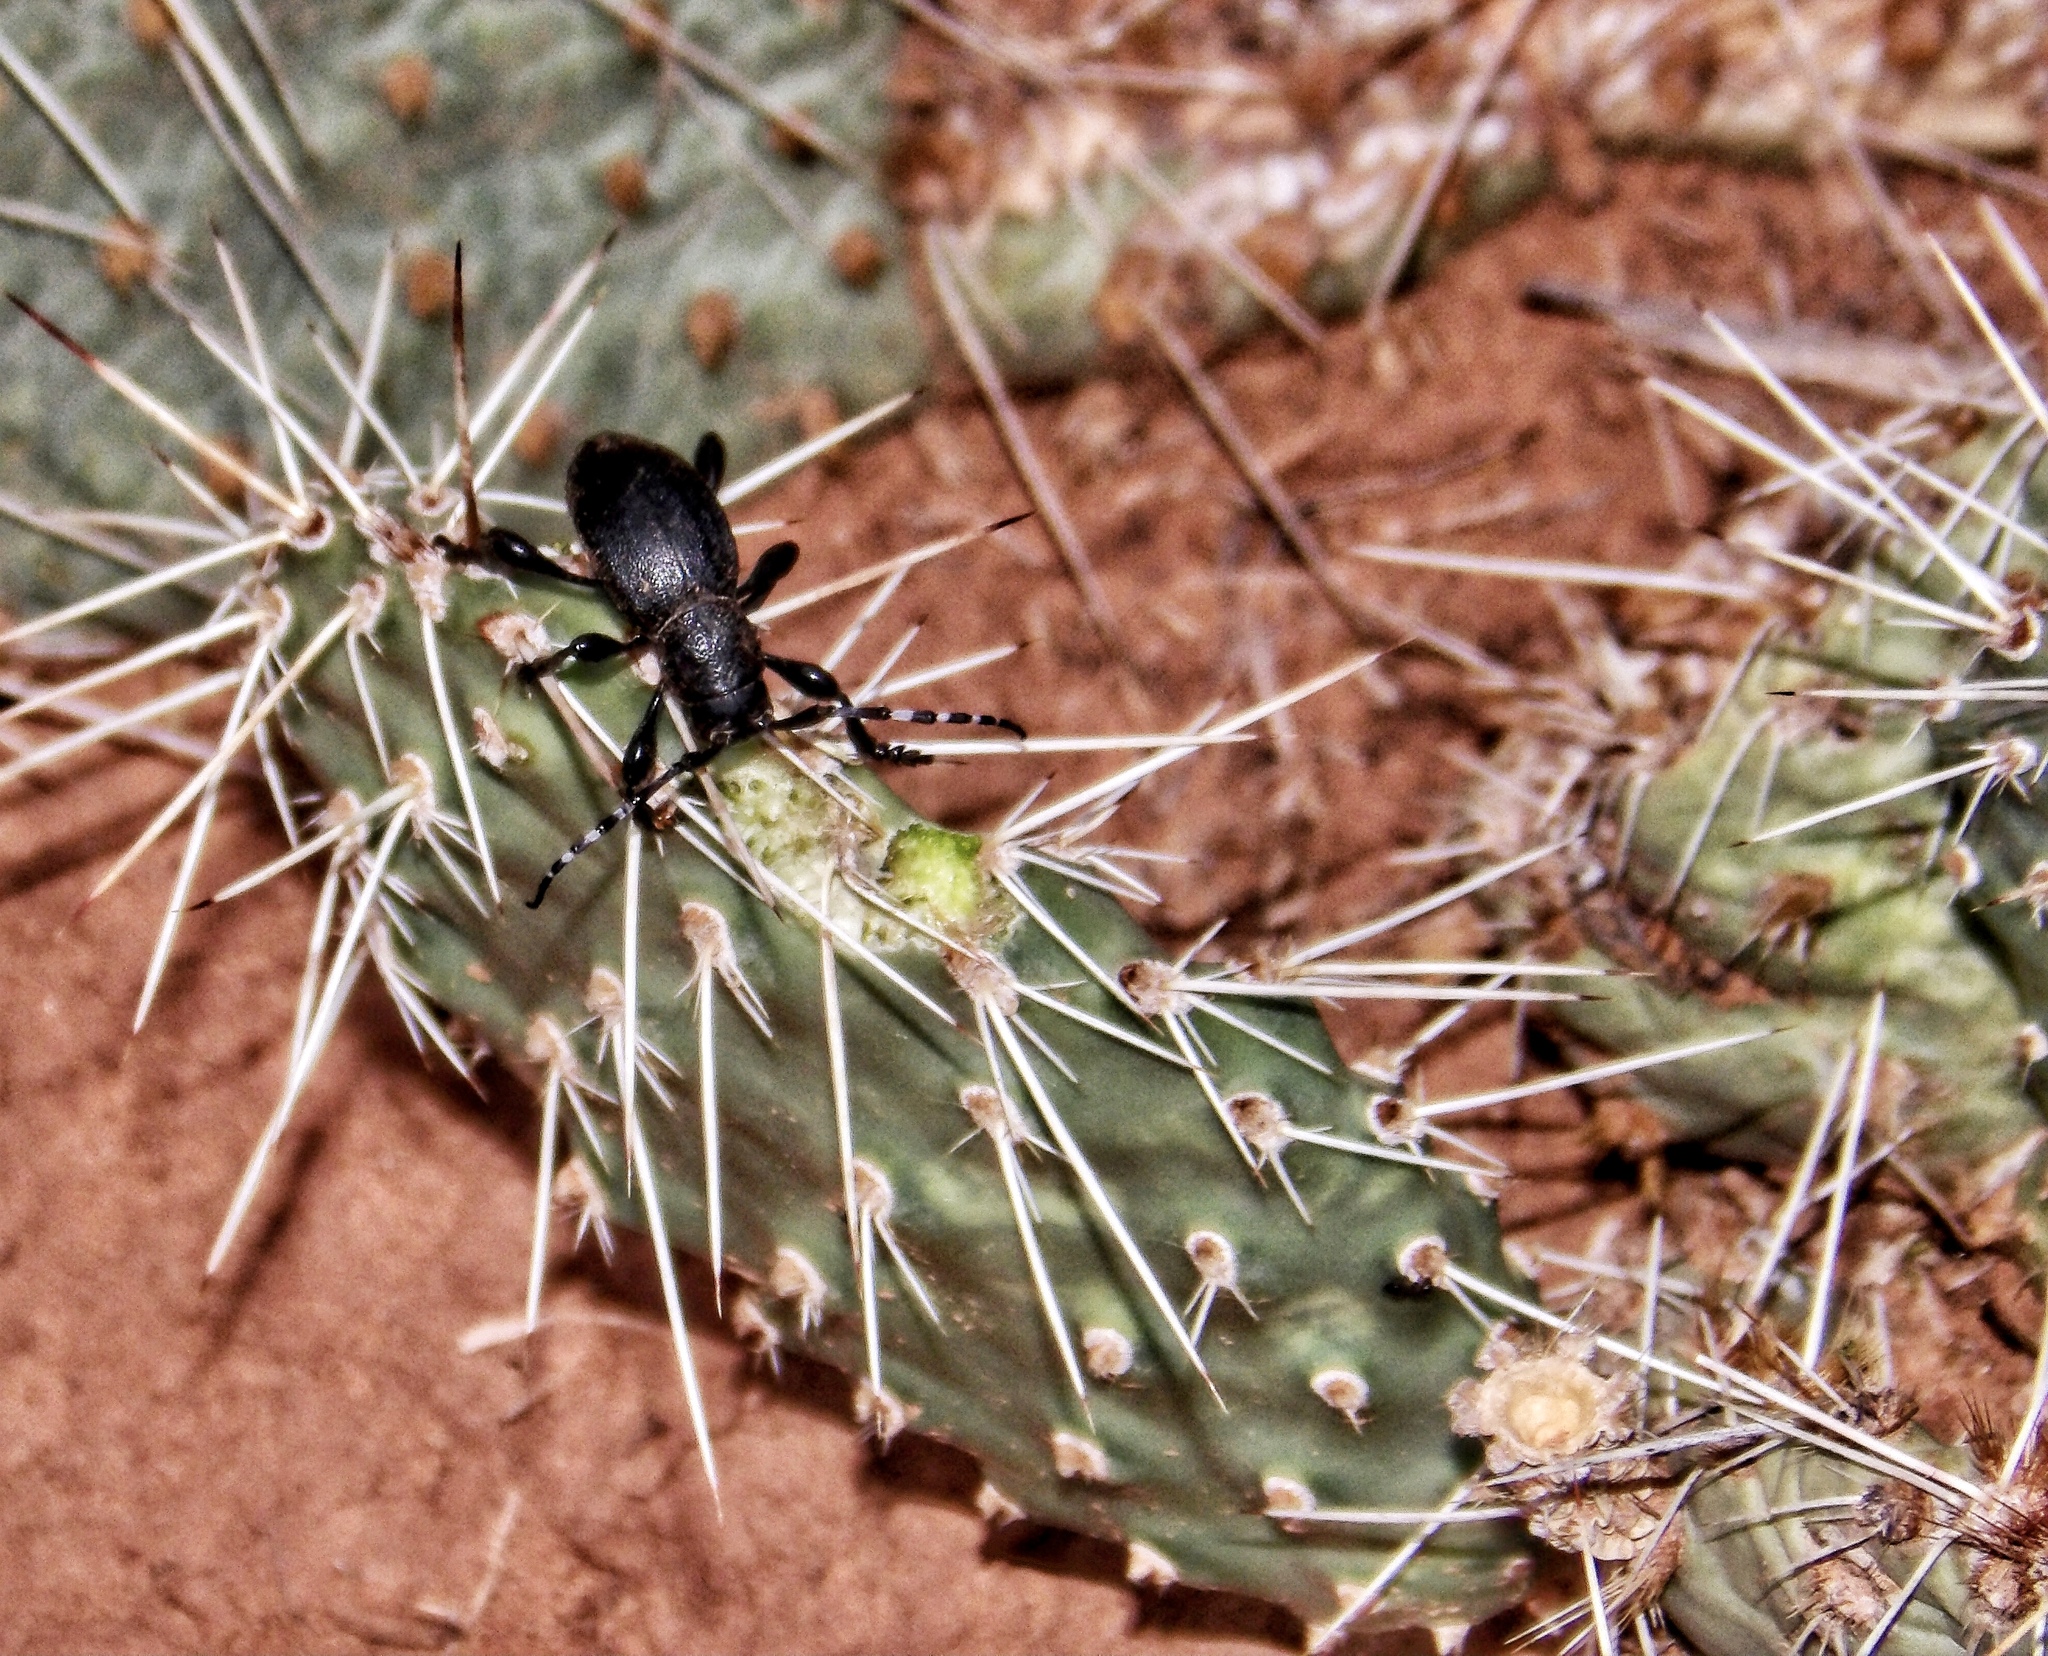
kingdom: Animalia
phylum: Arthropoda
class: Insecta
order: Coleoptera
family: Cerambycidae
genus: Moneilema
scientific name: Moneilema semipunctatum
